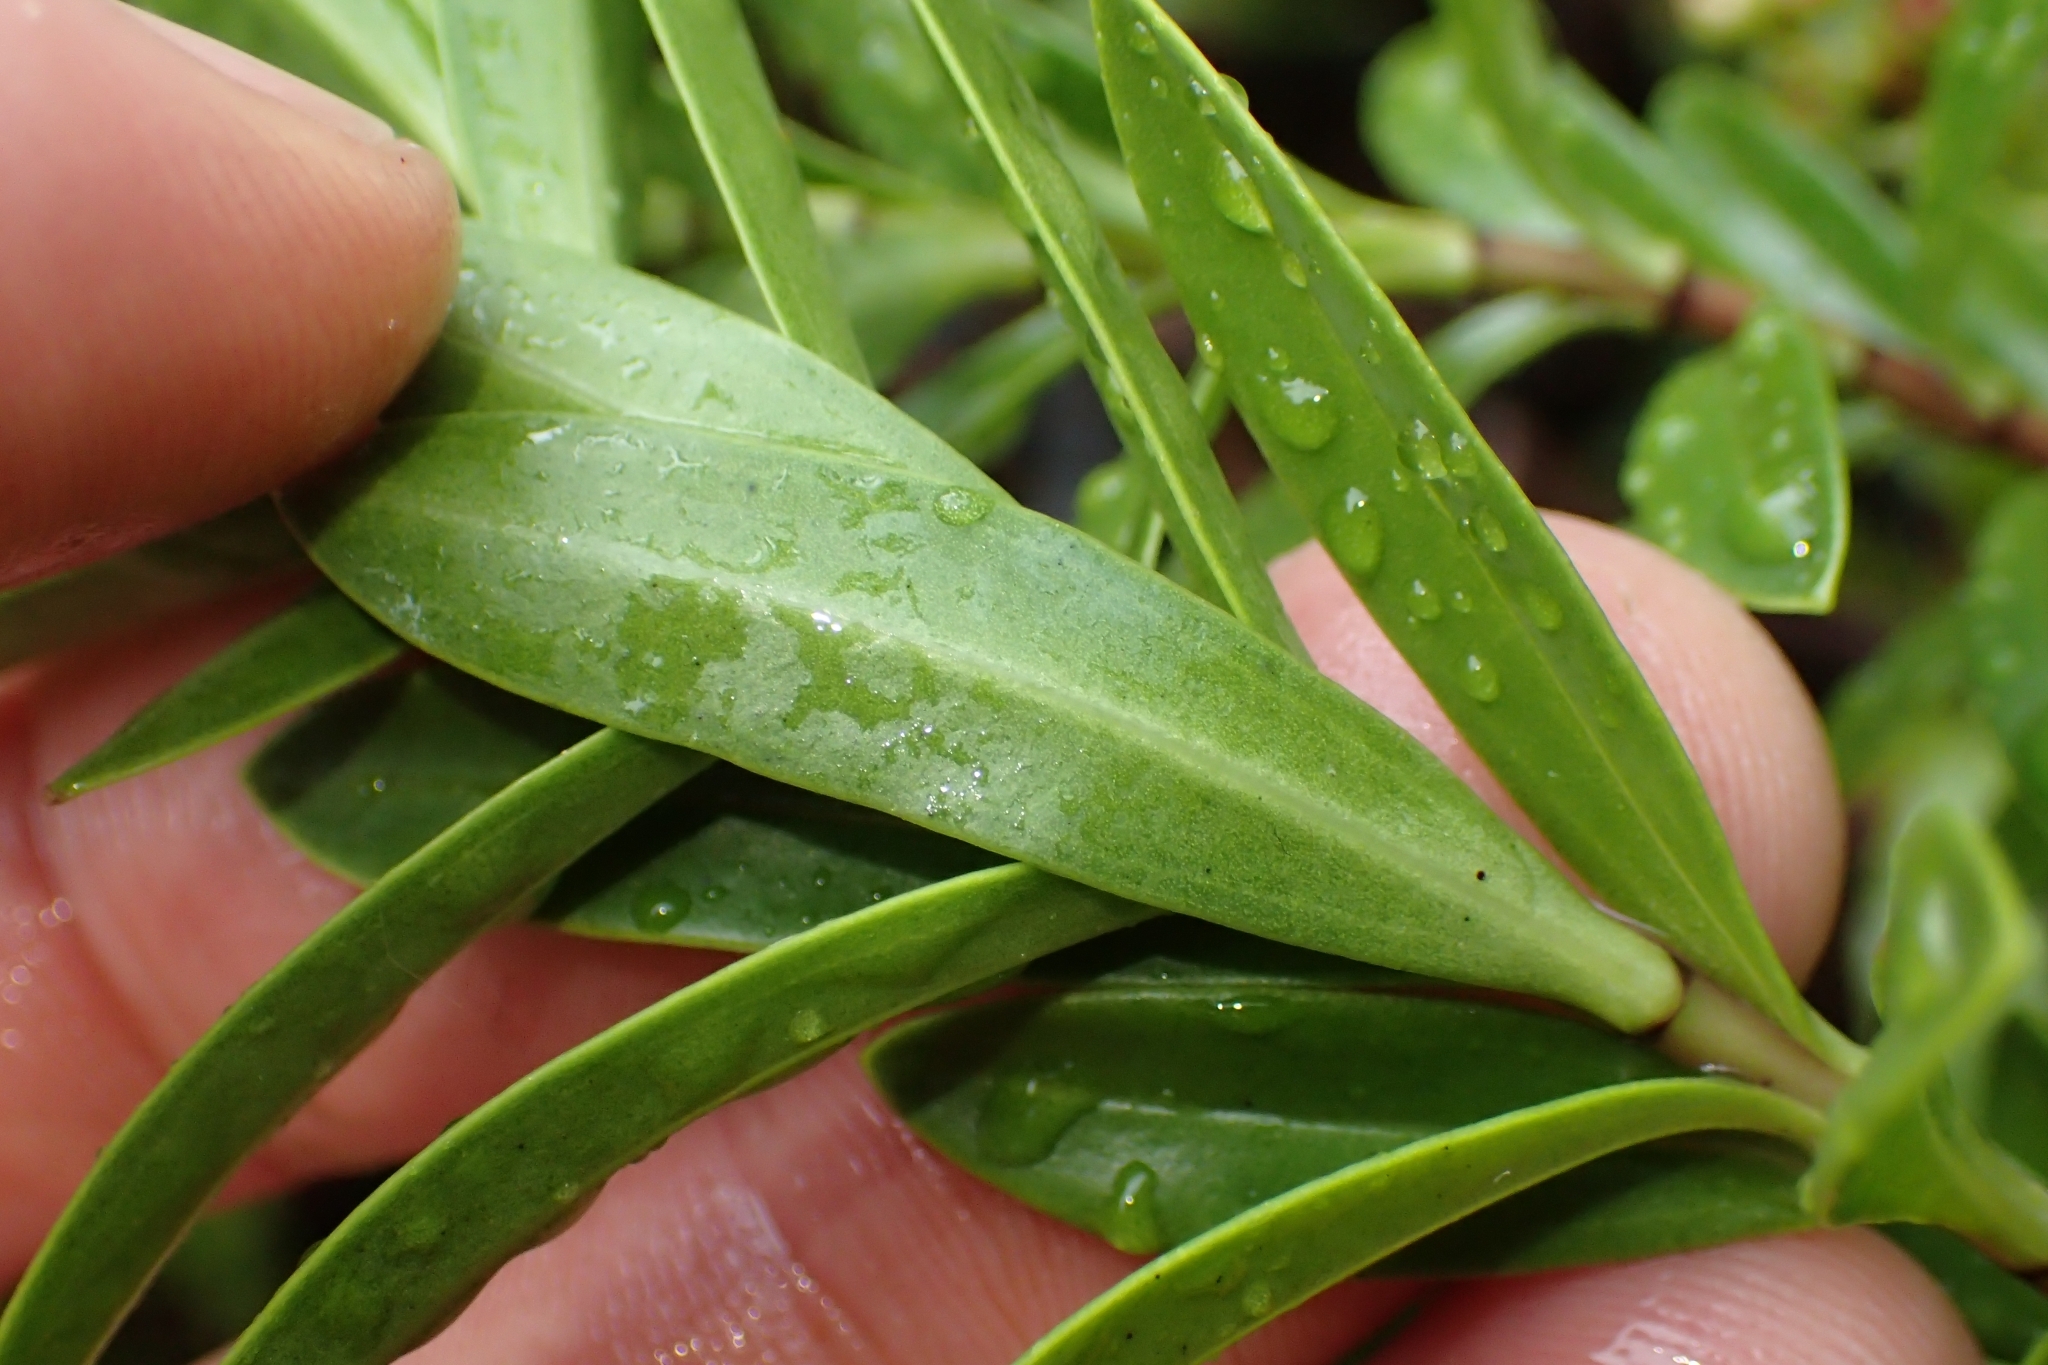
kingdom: Plantae
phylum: Tracheophyta
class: Magnoliopsida
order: Lamiales
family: Plantaginaceae
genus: Veronica
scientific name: Veronica rakaiensis
